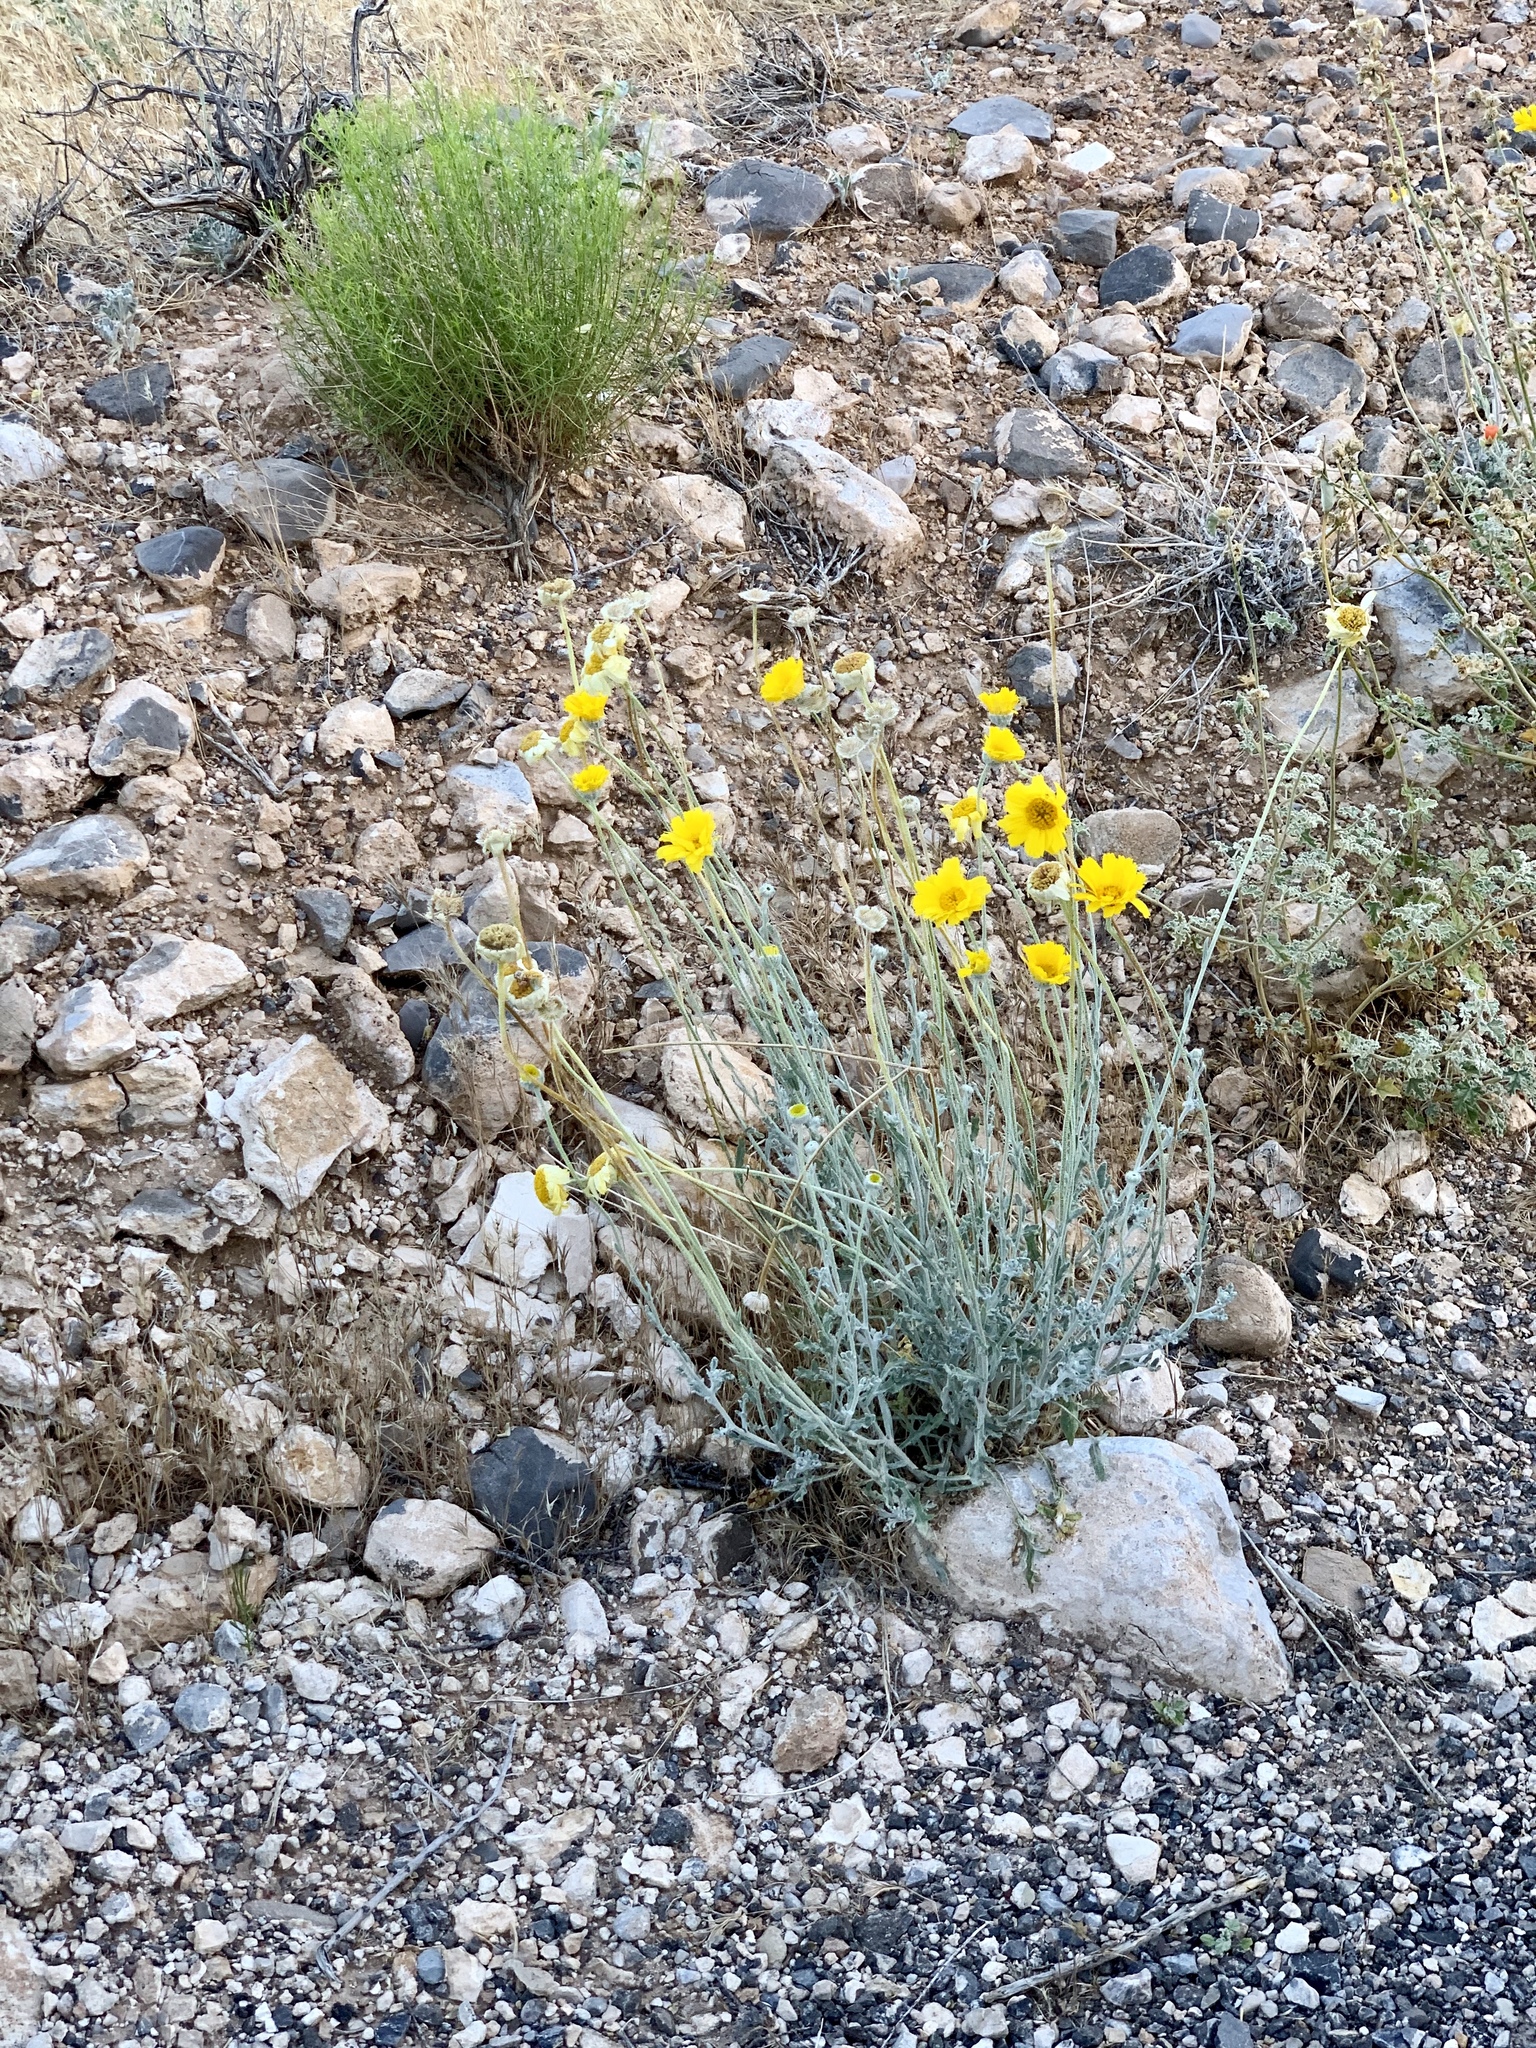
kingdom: Plantae
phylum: Tracheophyta
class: Magnoliopsida
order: Asterales
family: Asteraceae
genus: Baileya
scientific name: Baileya multiradiata
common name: Desert-marigold
